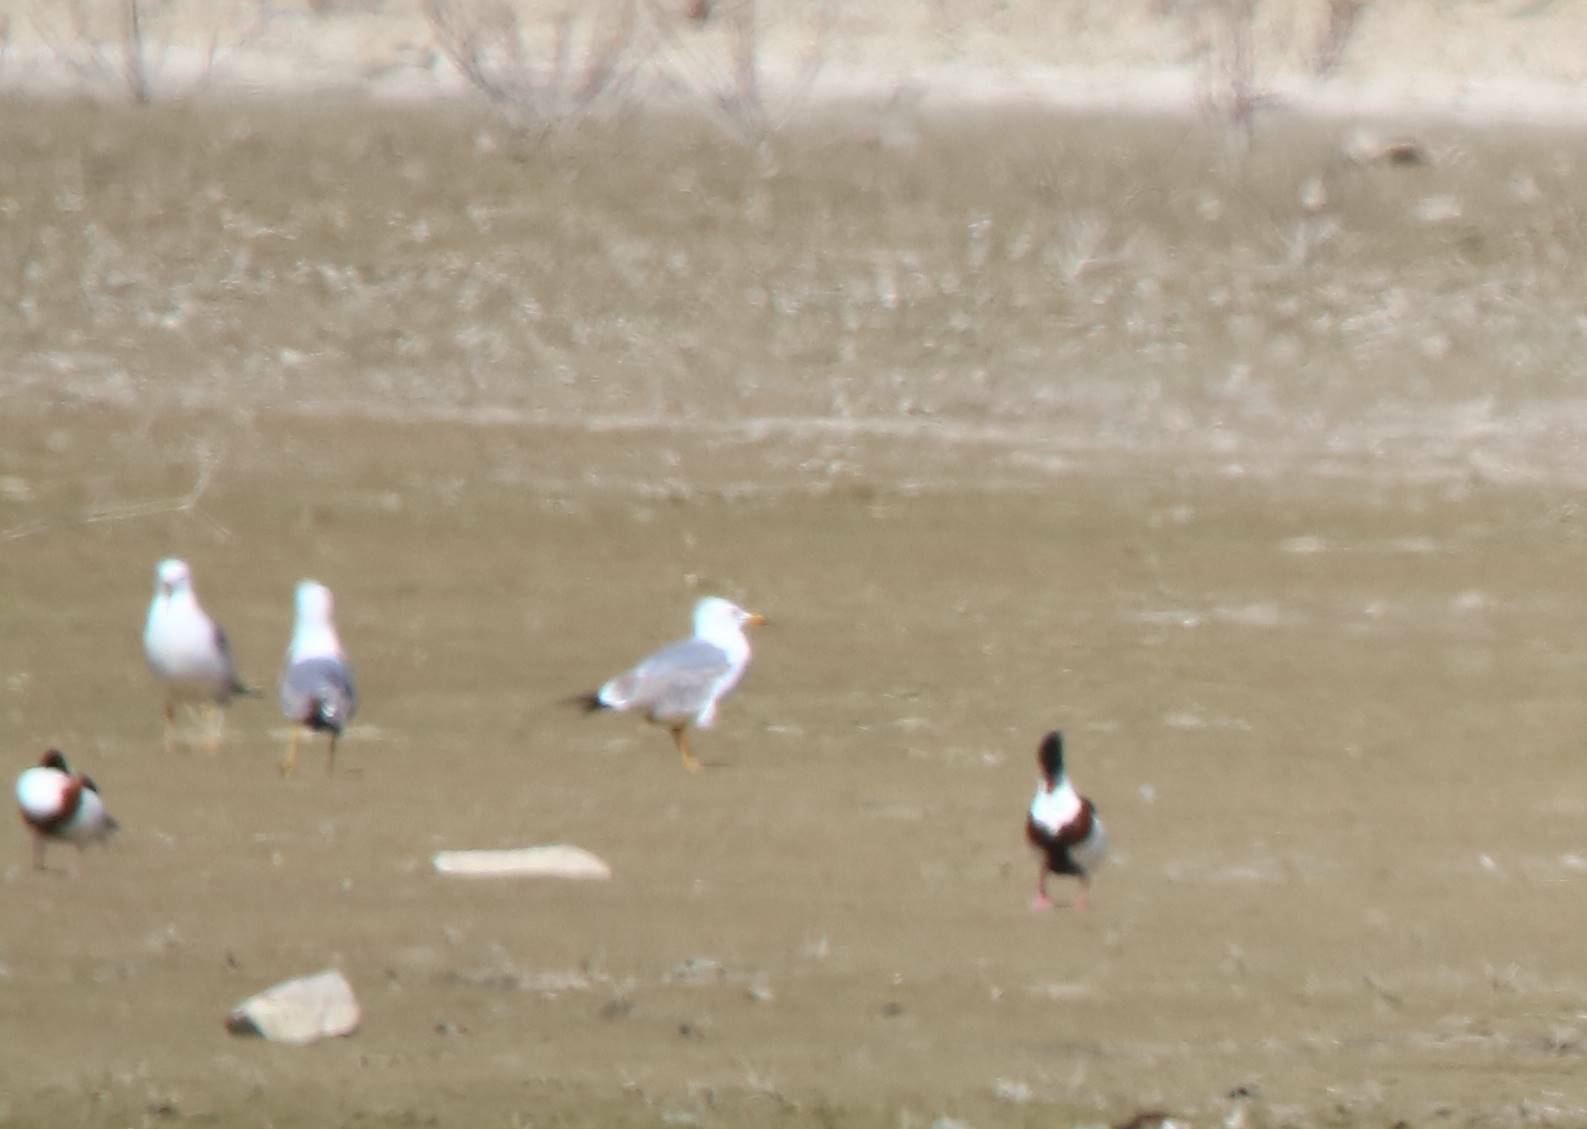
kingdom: Animalia
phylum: Chordata
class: Aves
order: Charadriiformes
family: Laridae
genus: Larus
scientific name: Larus michahellis
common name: Yellow-legged gull
